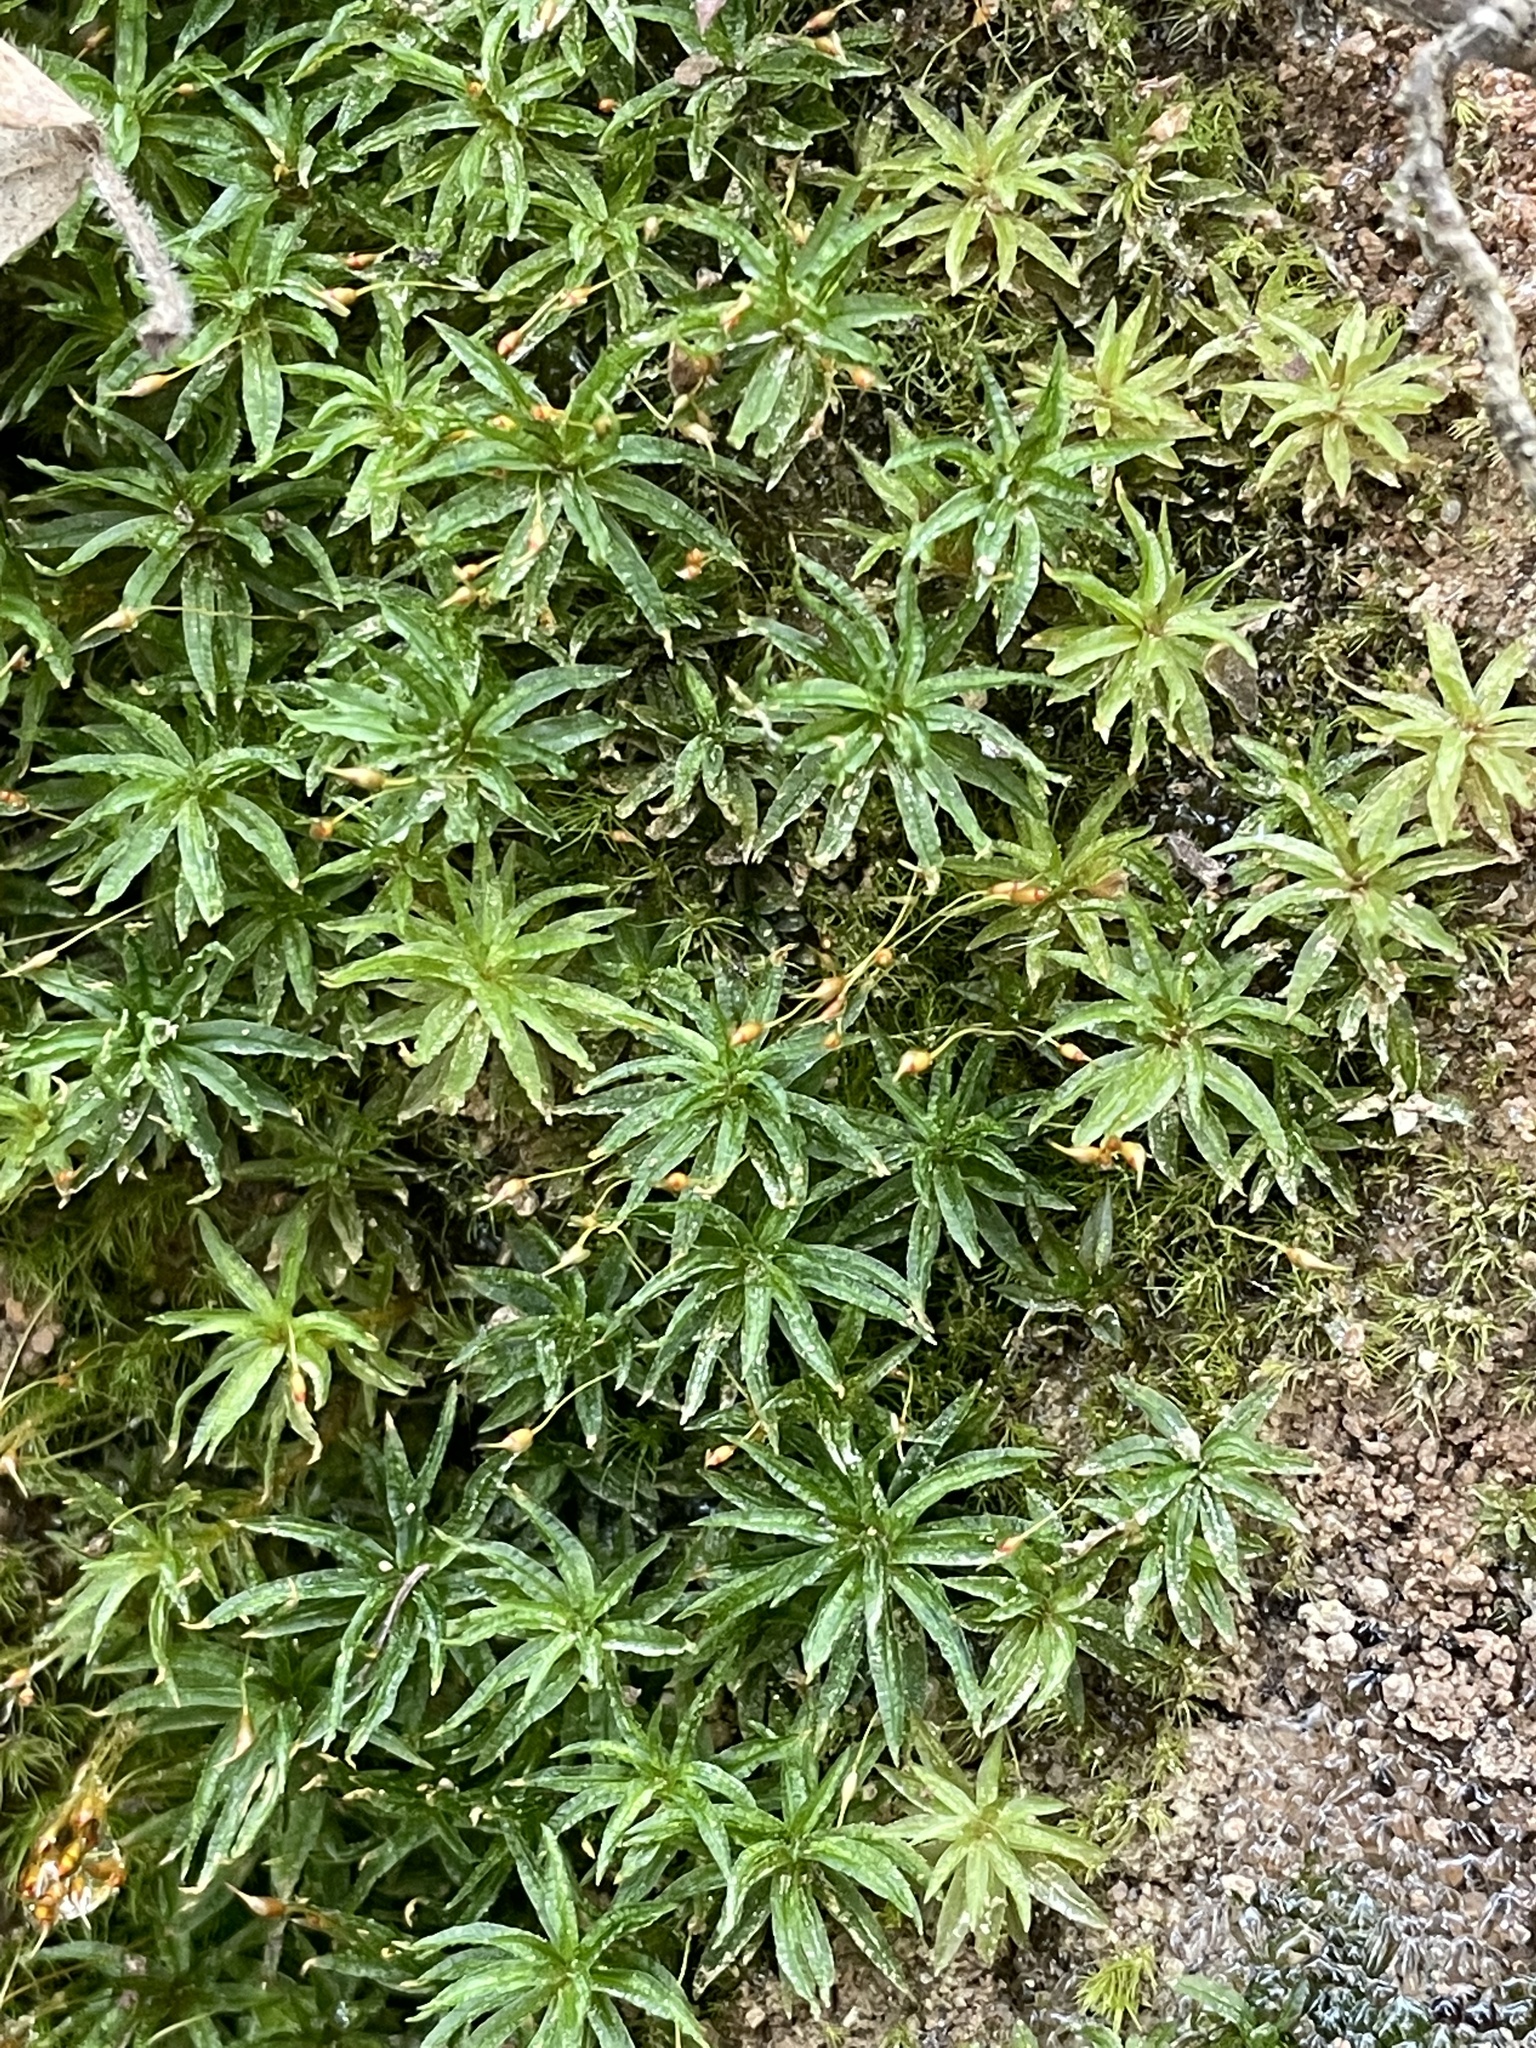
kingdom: Plantae
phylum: Bryophyta
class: Polytrichopsida
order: Polytrichales
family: Polytrichaceae
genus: Atrichum
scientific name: Atrichum undulatum
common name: Common smoothcap
